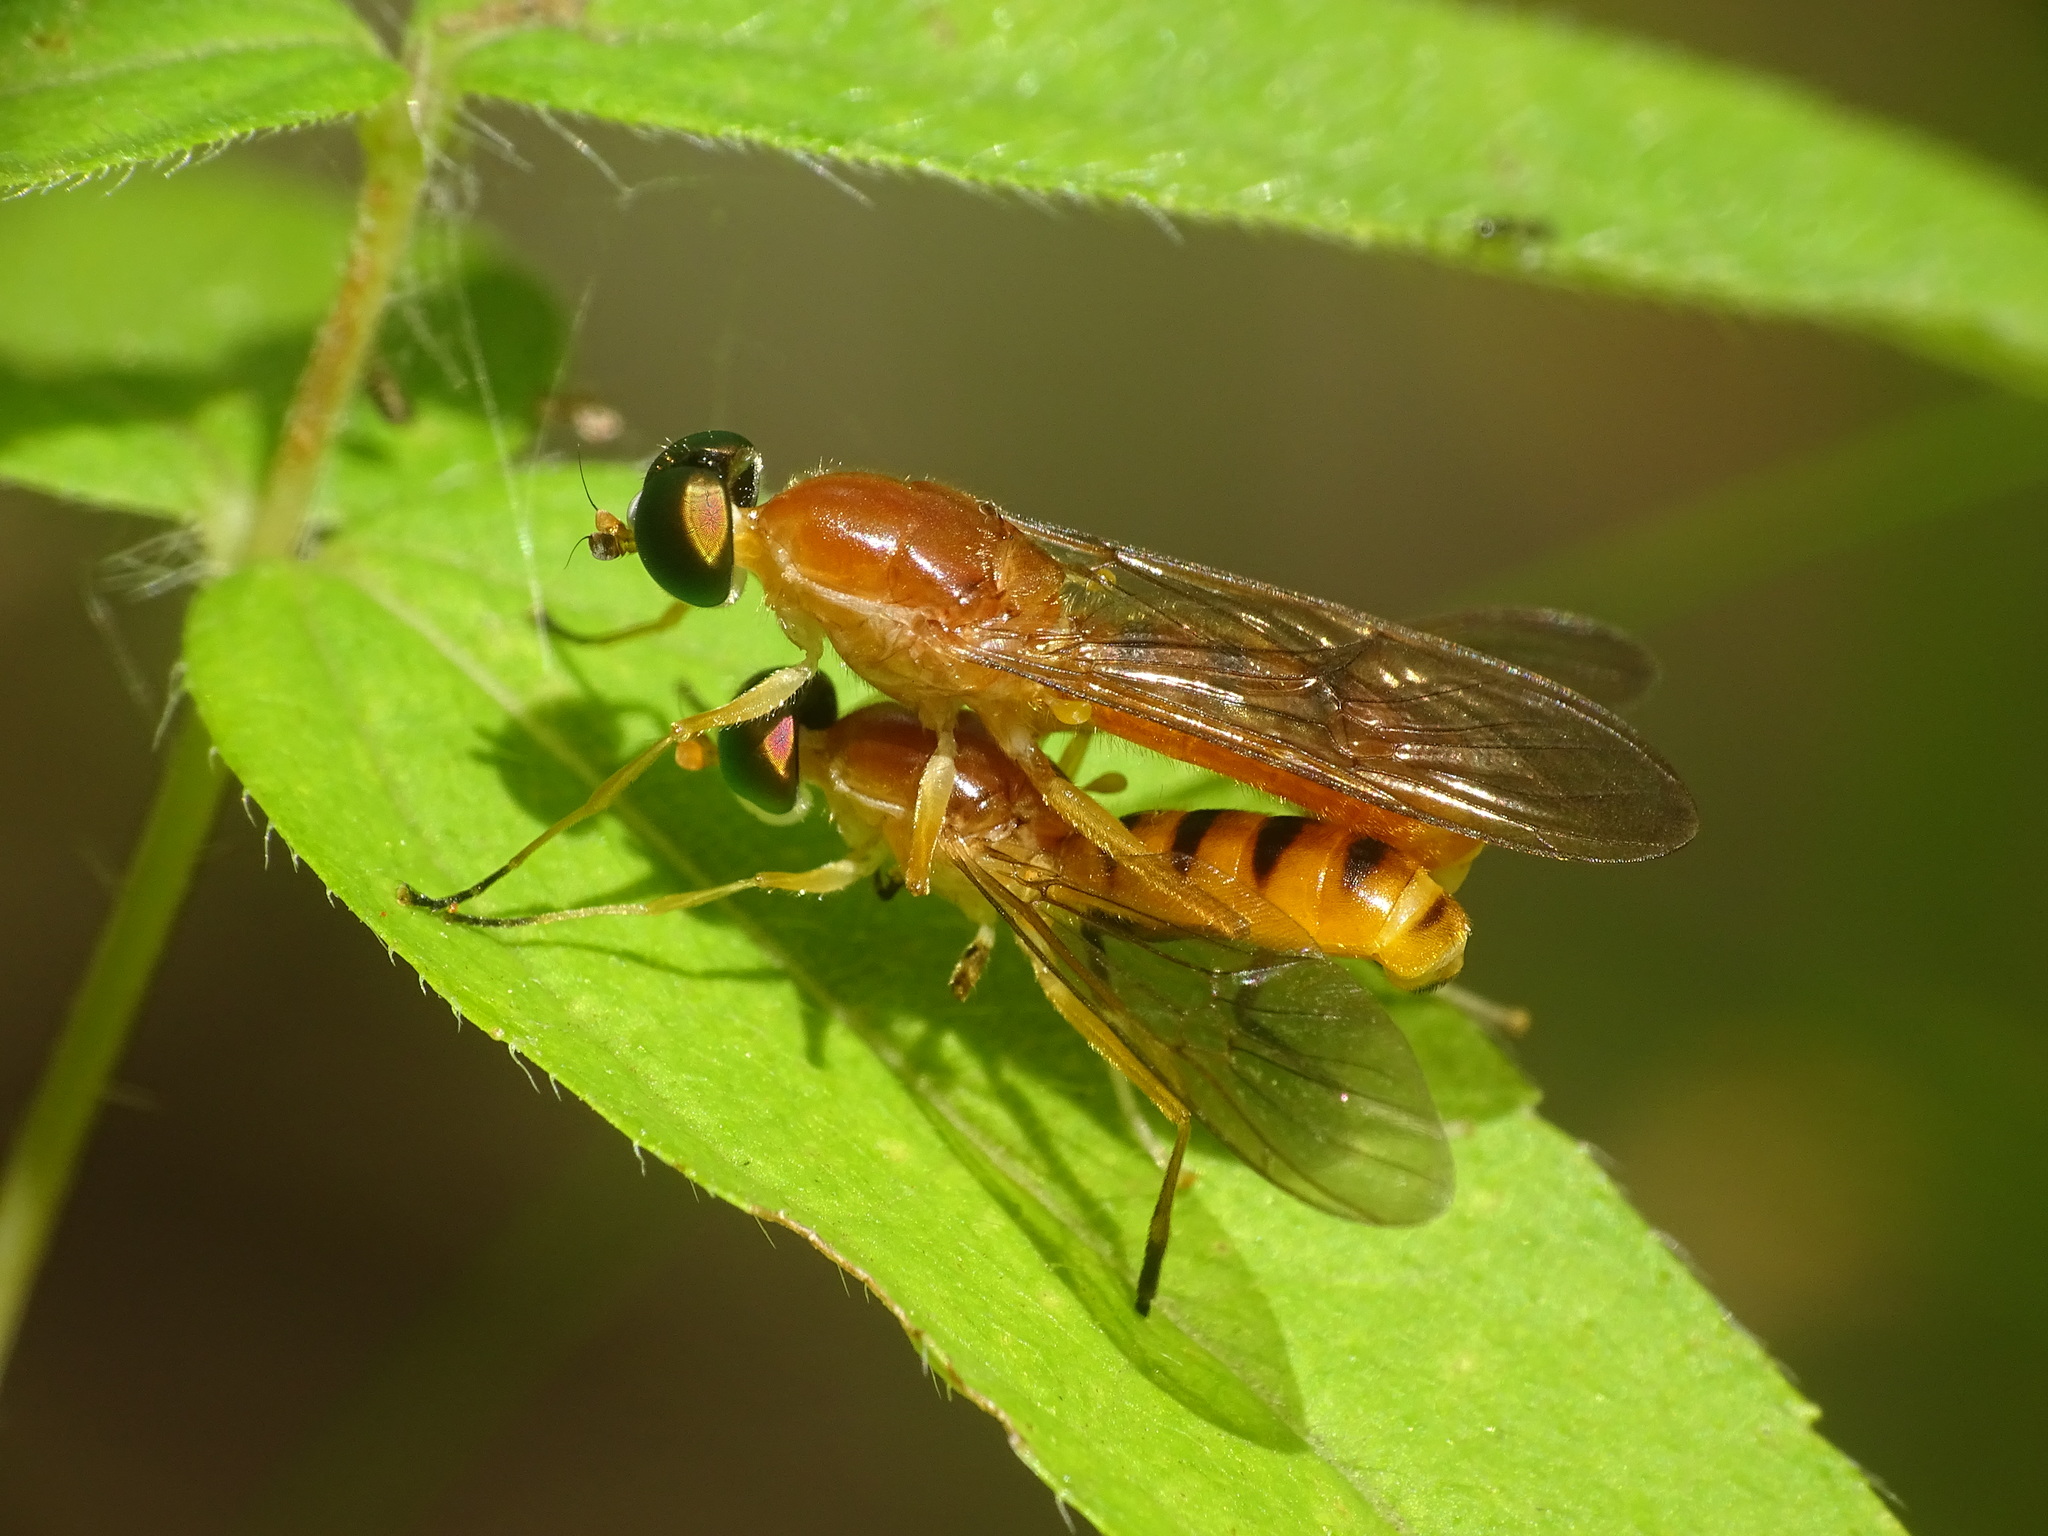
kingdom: Animalia
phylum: Arthropoda
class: Insecta
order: Diptera
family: Stratiomyidae
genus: Ptecticus
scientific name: Ptecticus trivittatus
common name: Compost fly
